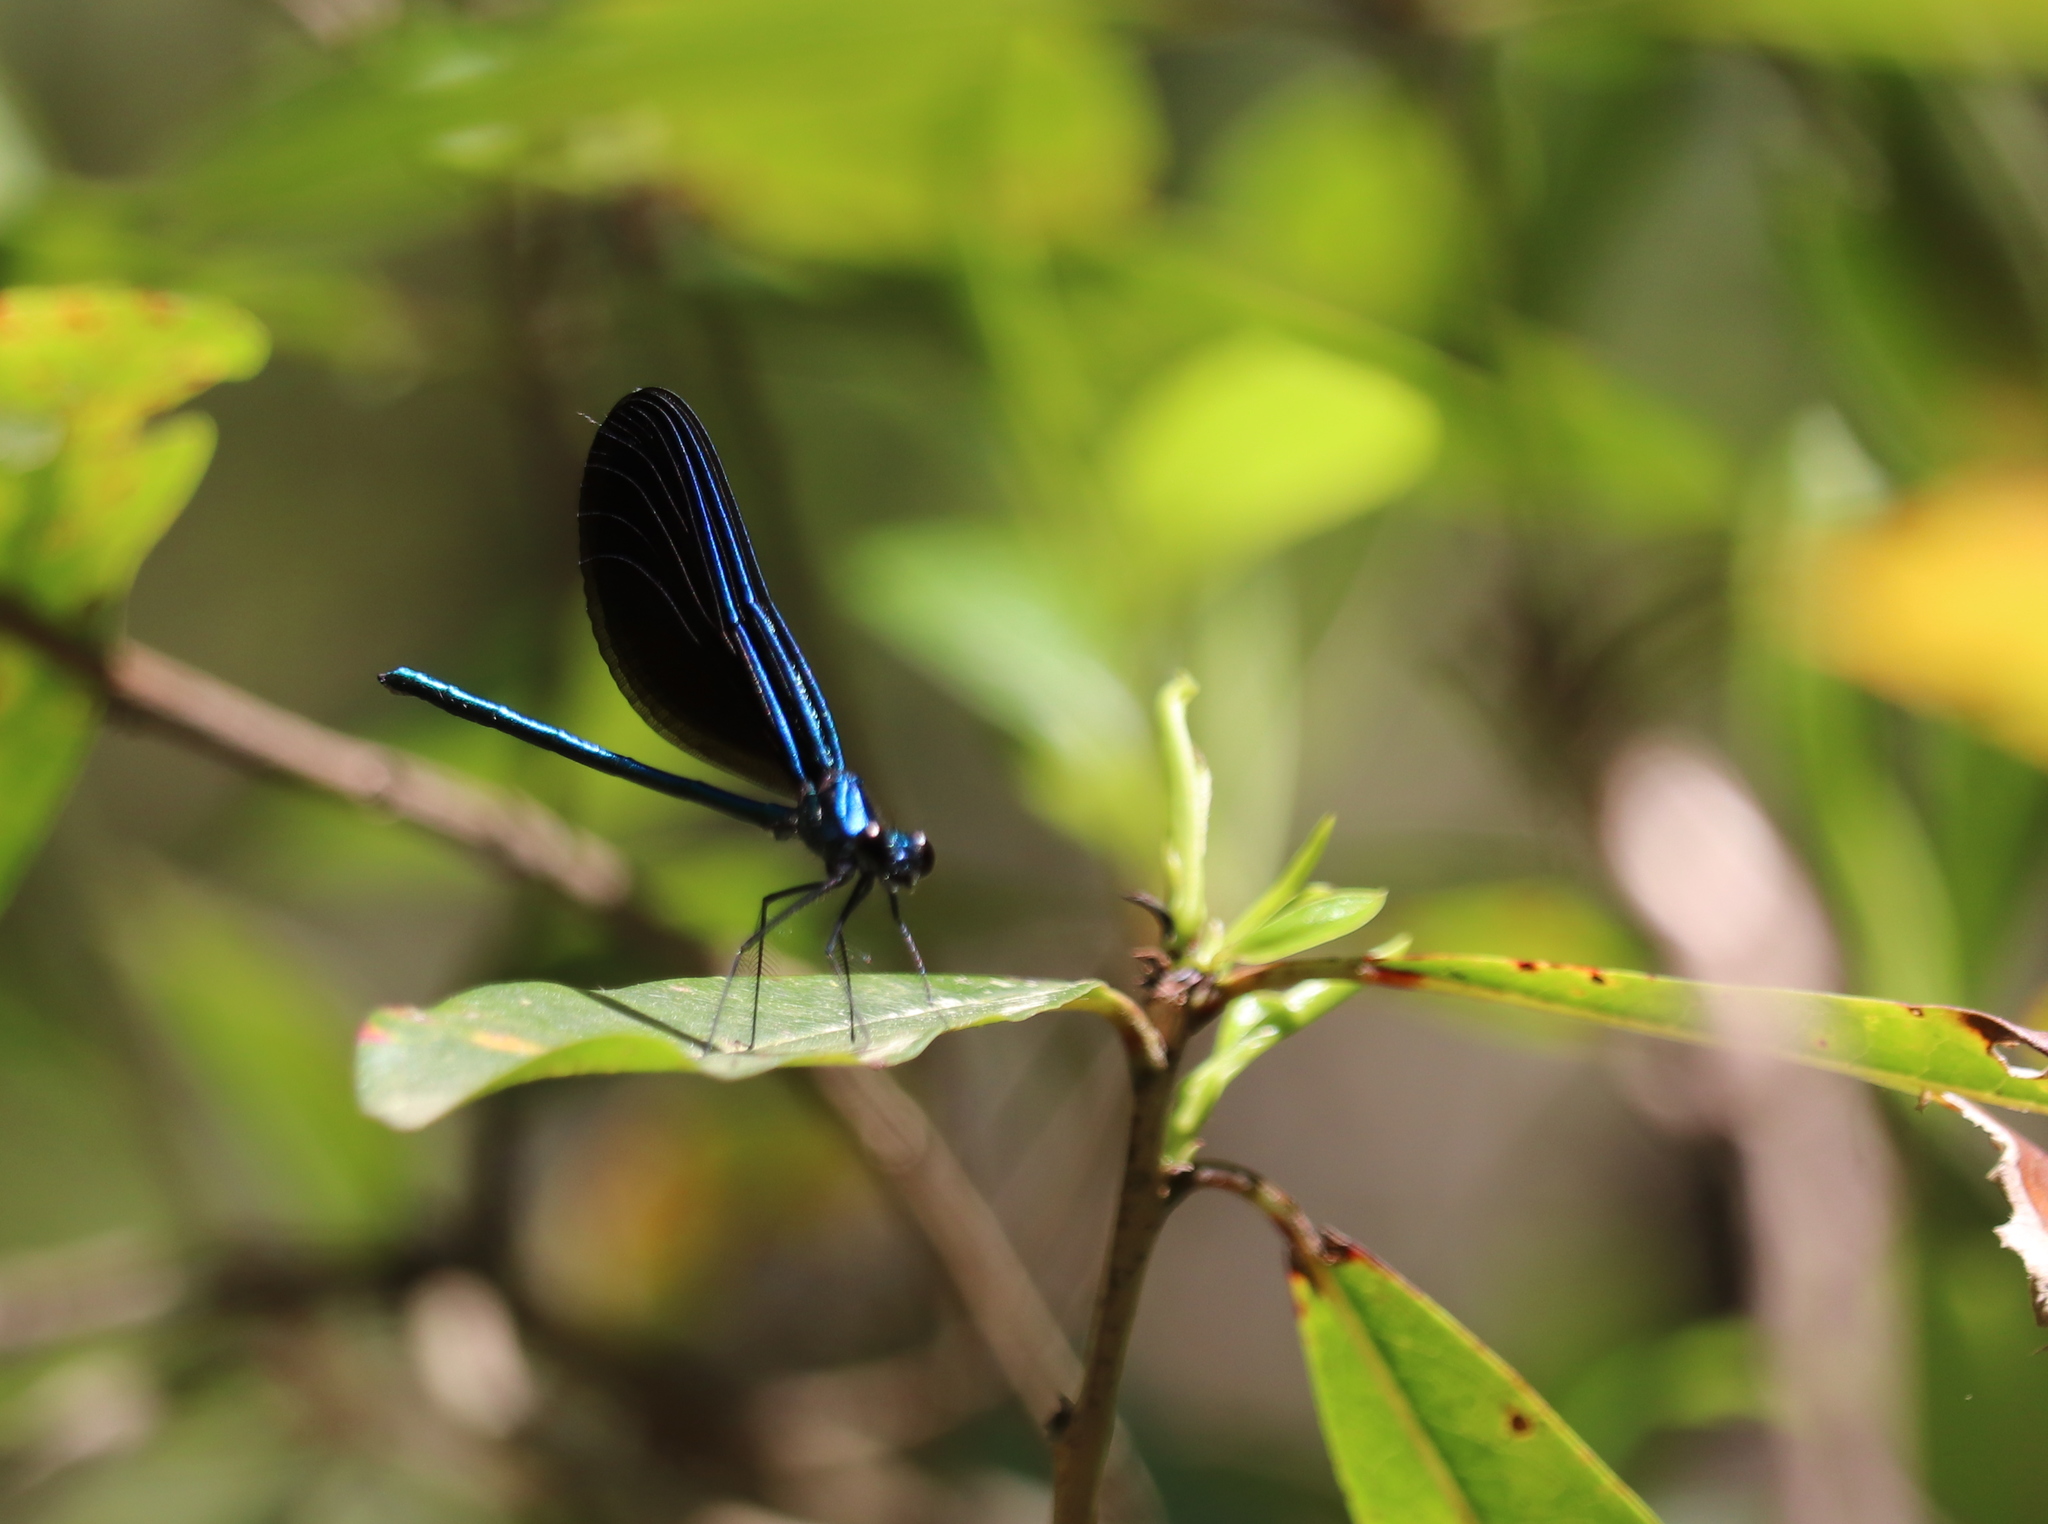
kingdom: Animalia
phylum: Arthropoda
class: Insecta
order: Odonata
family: Calopterygidae
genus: Calopteryx
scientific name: Calopteryx maculata
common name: Ebony jewelwing
